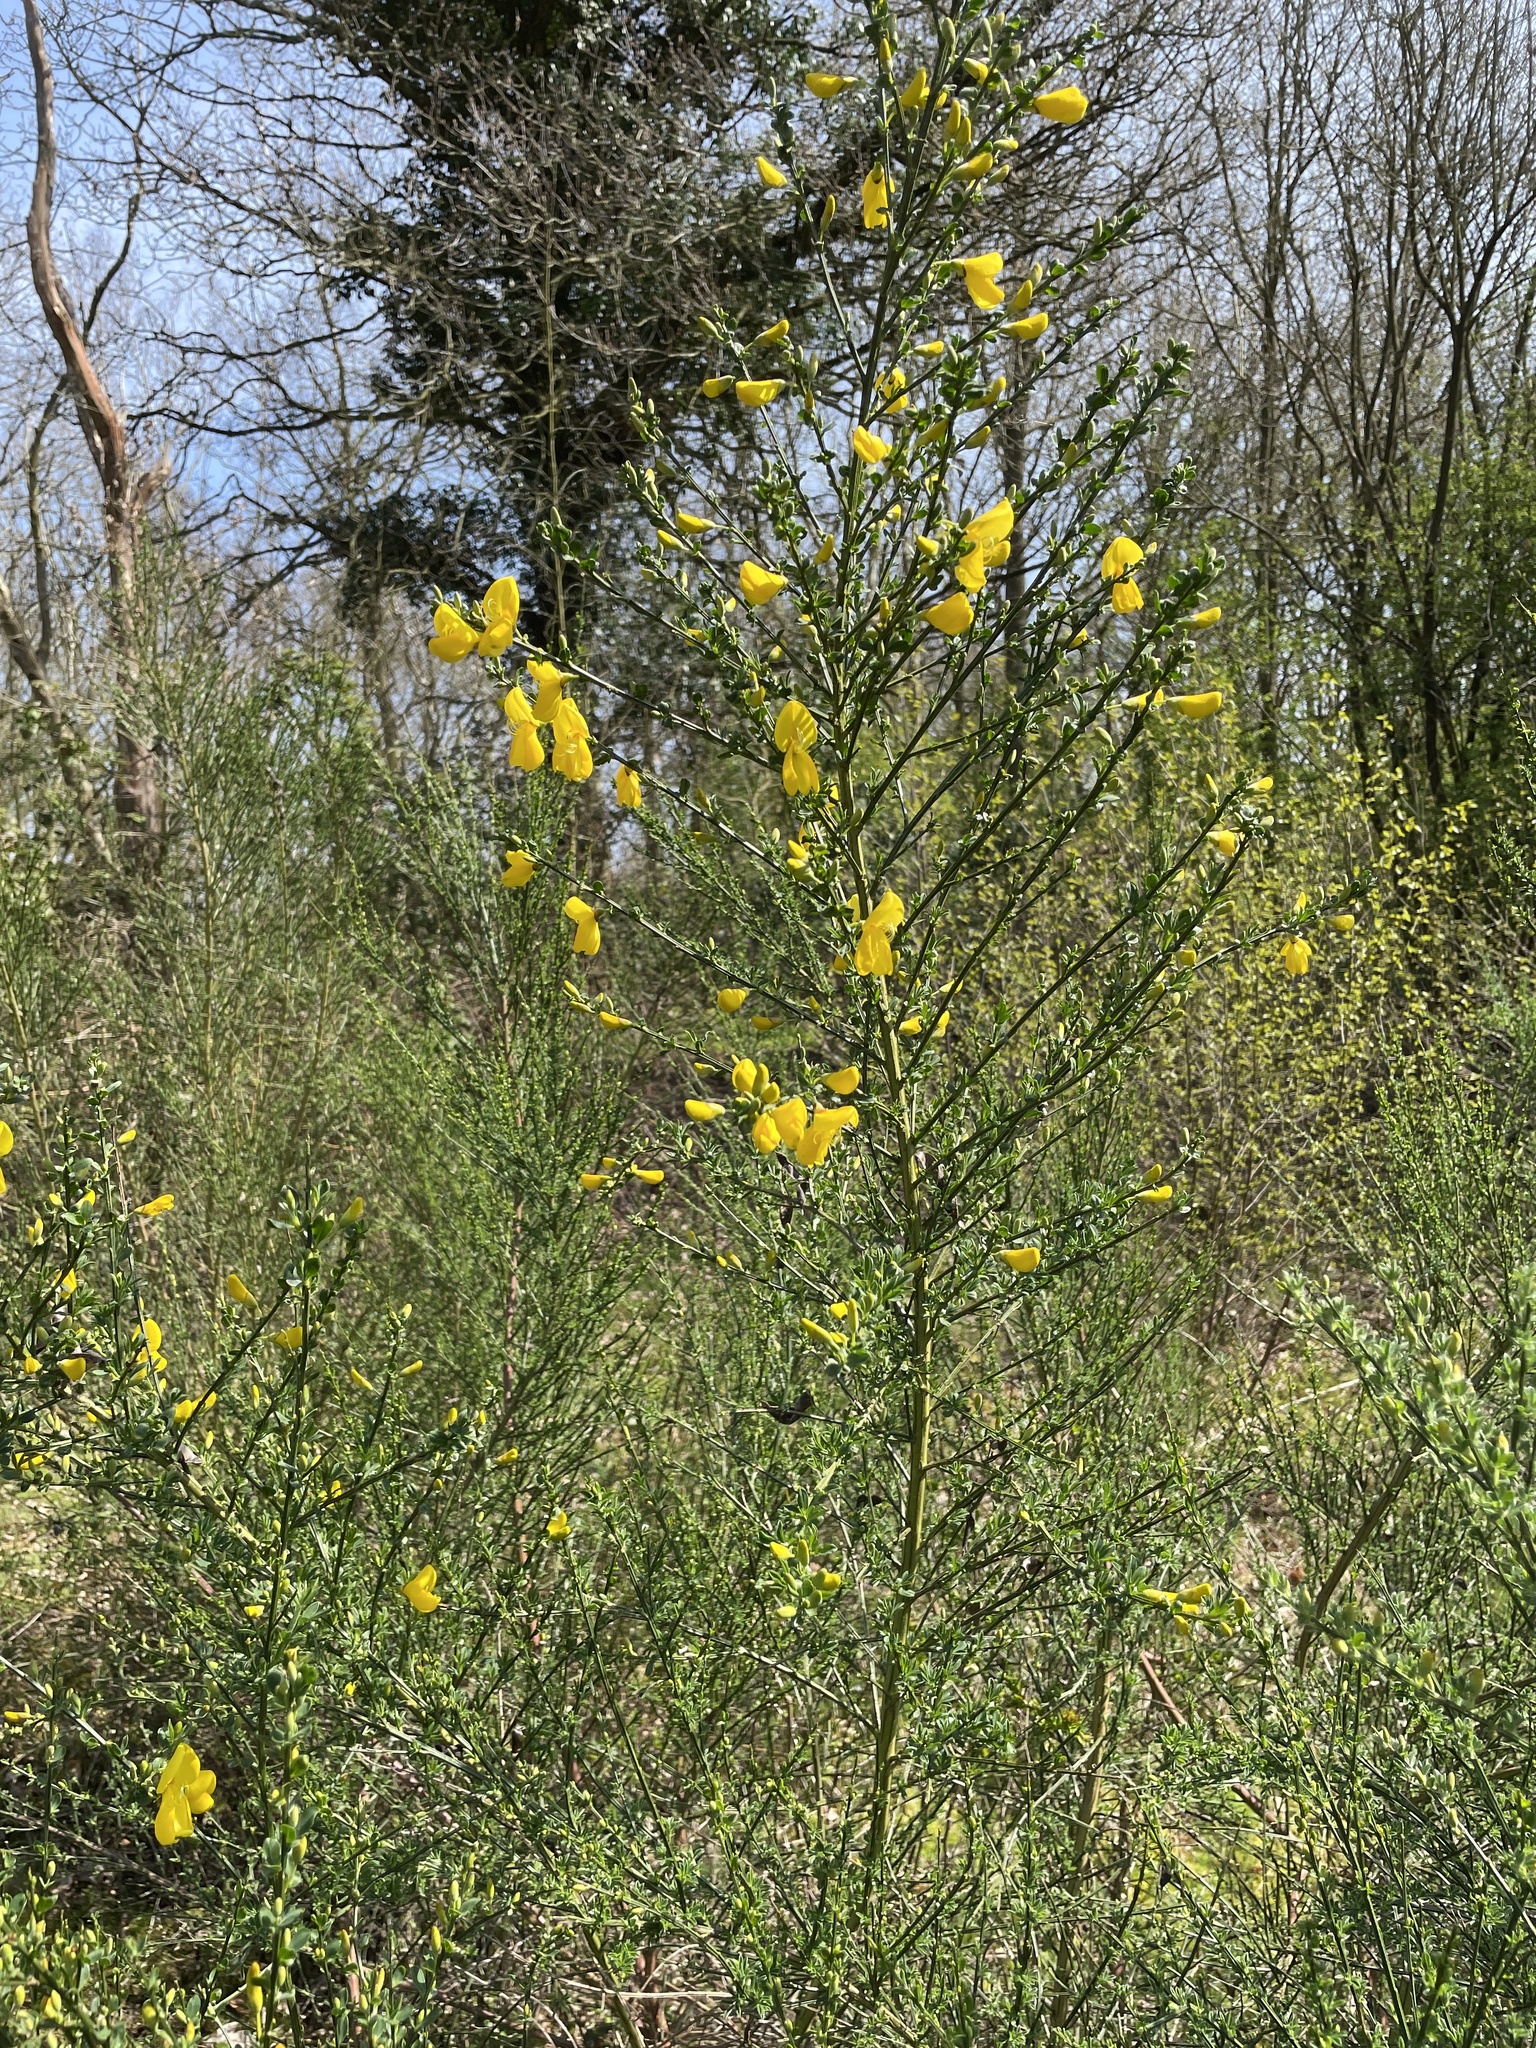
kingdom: Plantae
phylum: Tracheophyta
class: Magnoliopsida
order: Fabales
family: Fabaceae
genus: Cytisus
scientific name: Cytisus scoparius
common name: Scotch broom
